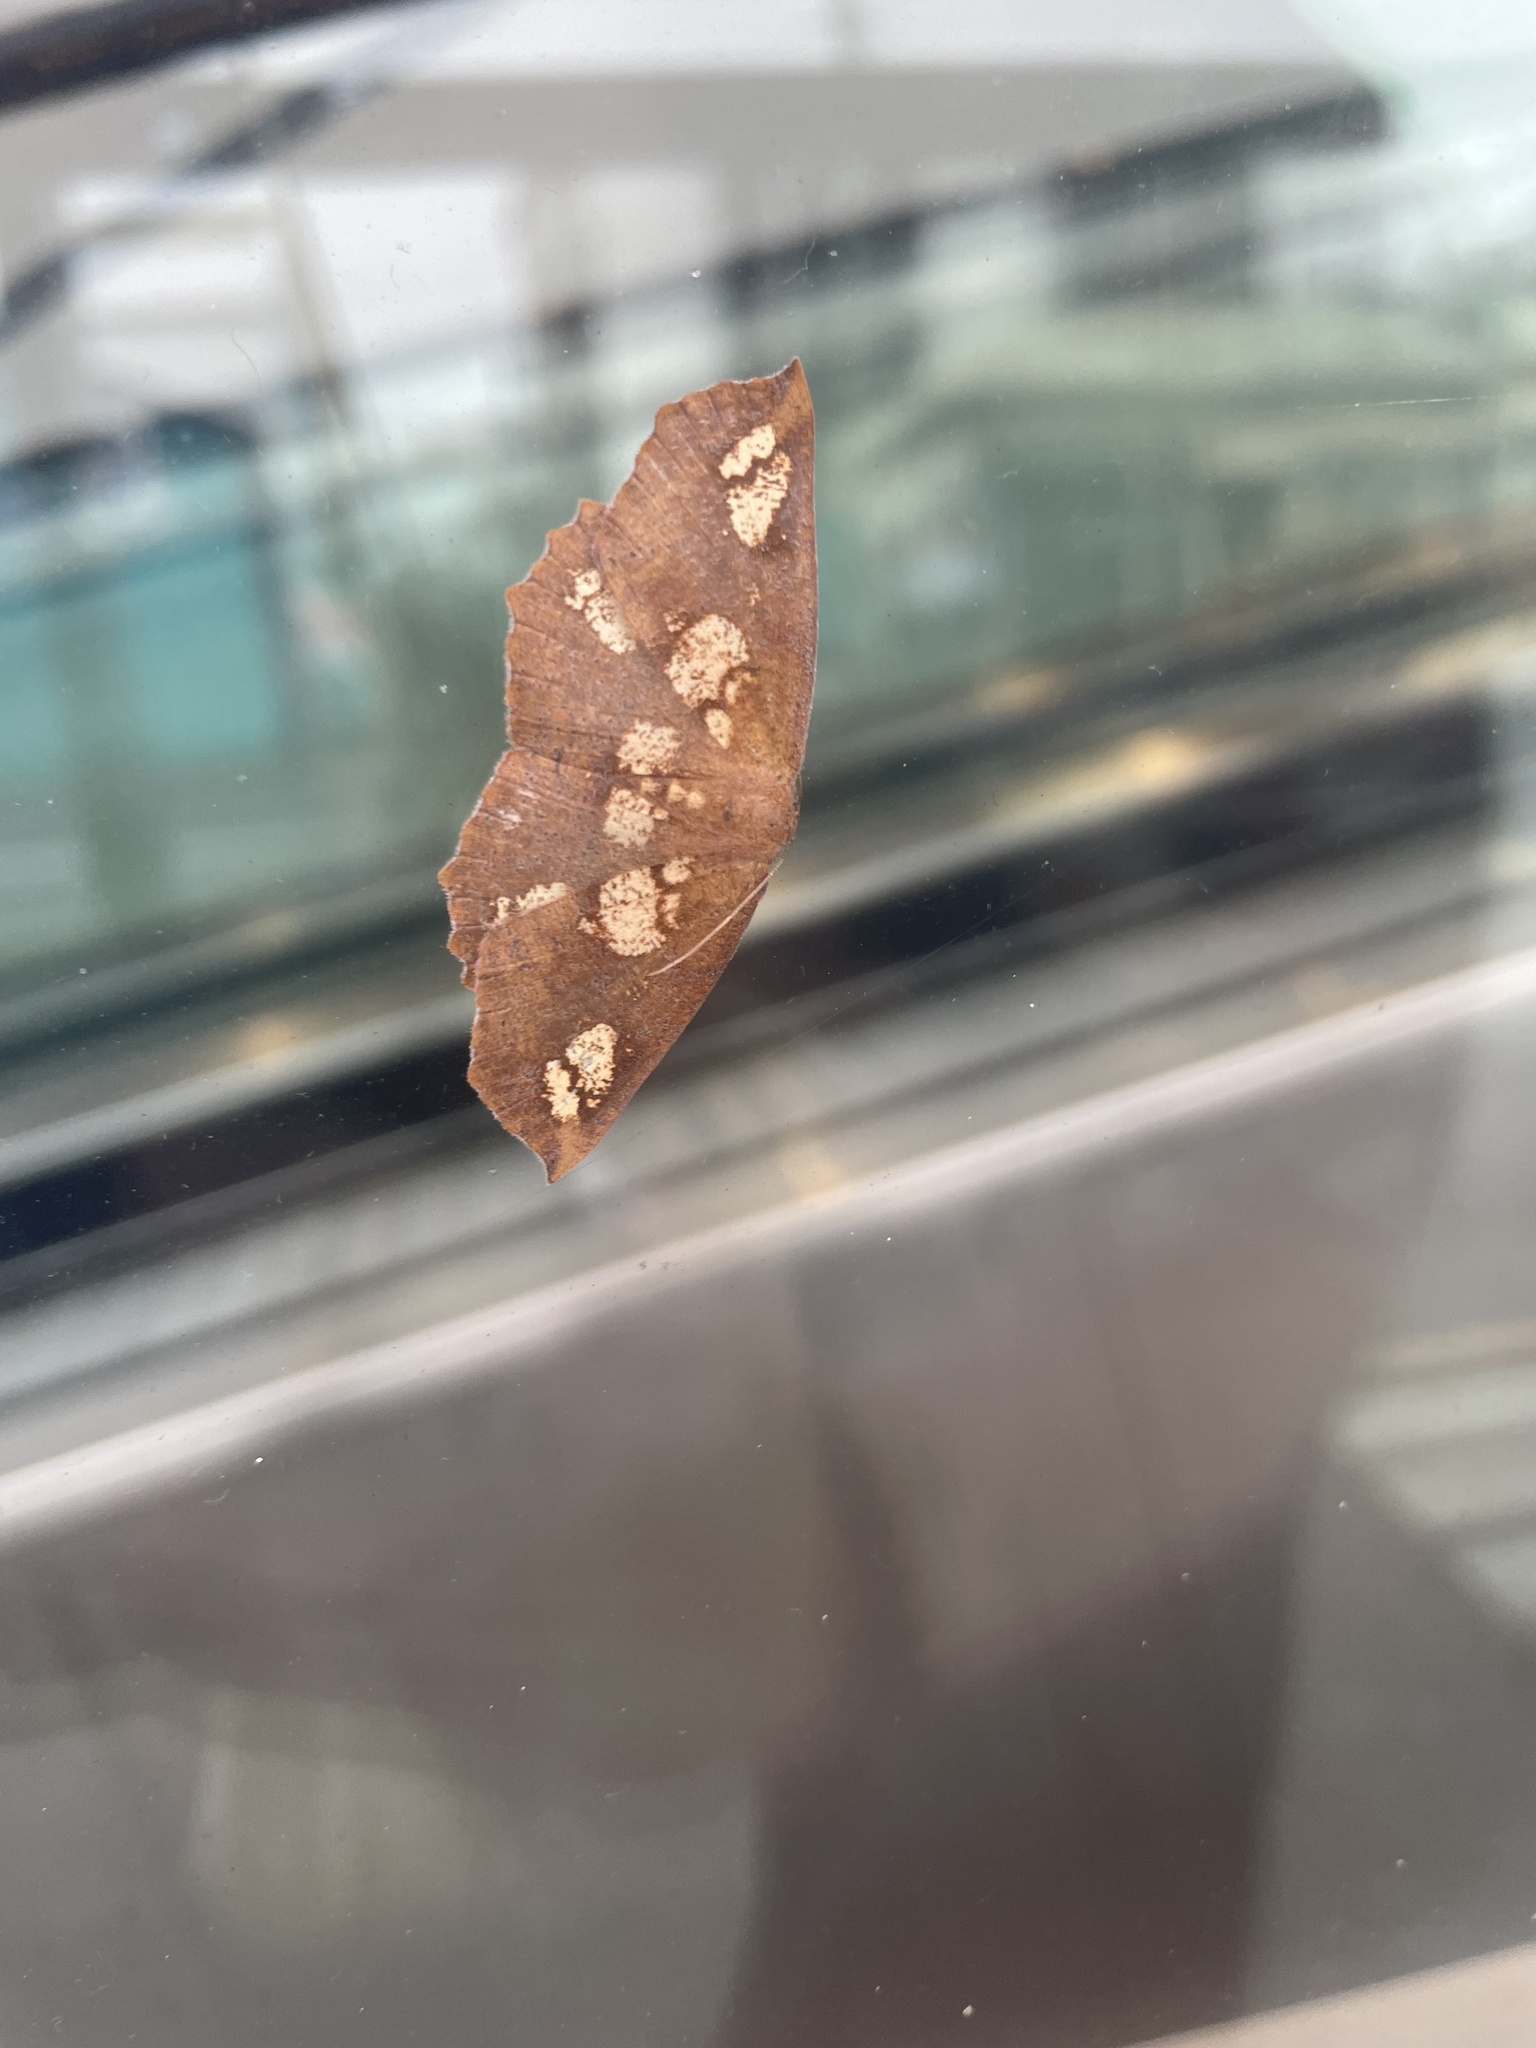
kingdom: Animalia
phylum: Arthropoda
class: Insecta
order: Lepidoptera
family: Geometridae
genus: Xyridacma
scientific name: Xyridacma ustaria
